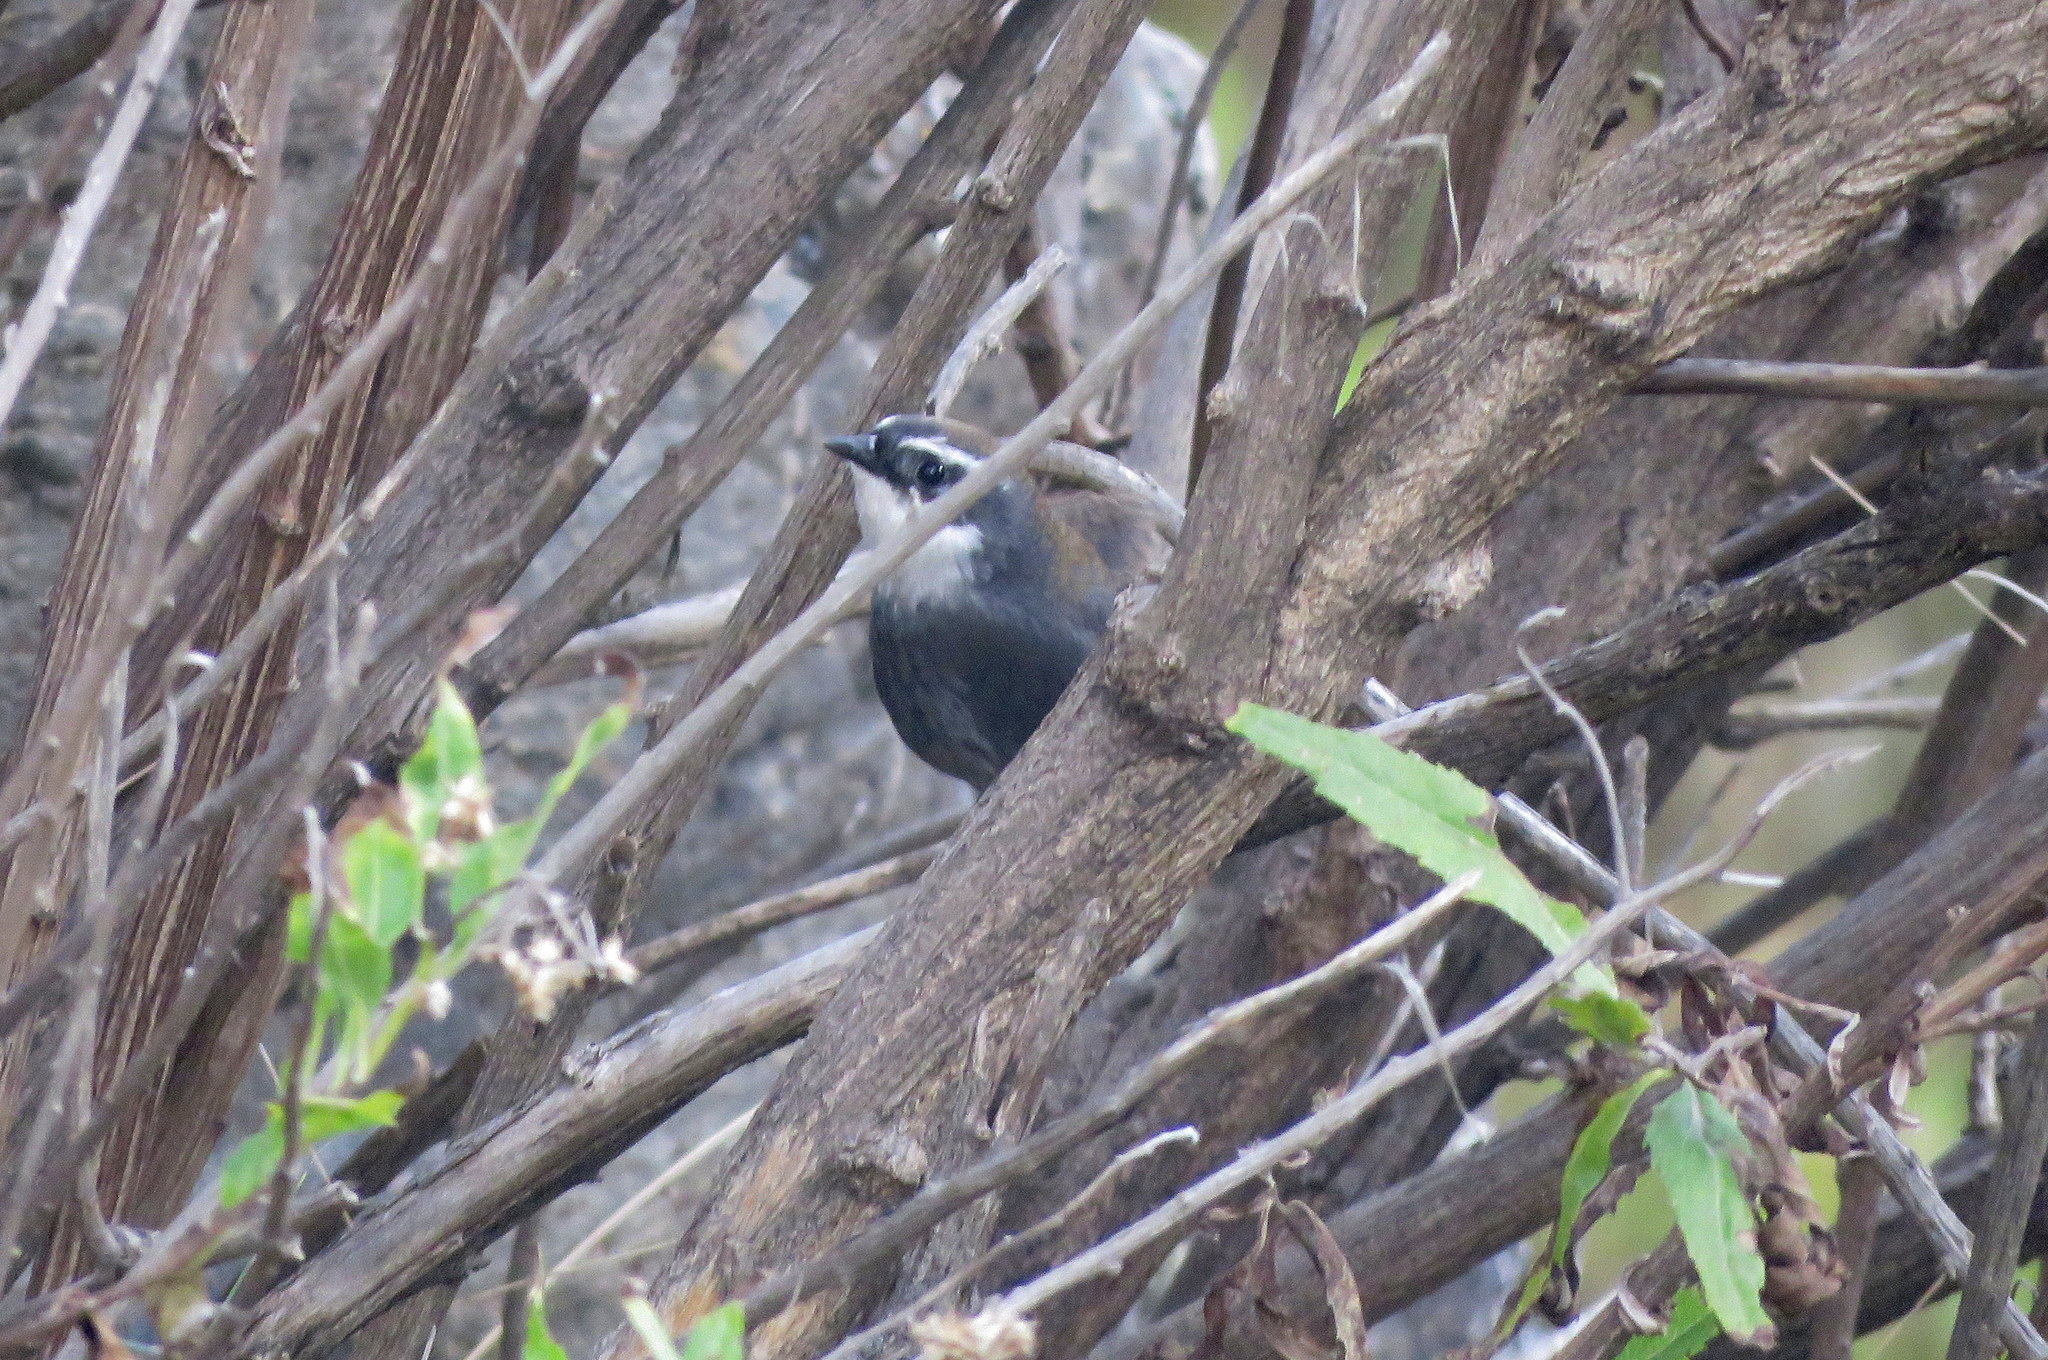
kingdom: Animalia
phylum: Chordata
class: Aves
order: Passeriformes
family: Rhinocryptidae
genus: Scytalopus
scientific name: Scytalopus superciliaris
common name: White-browed tapaculo
